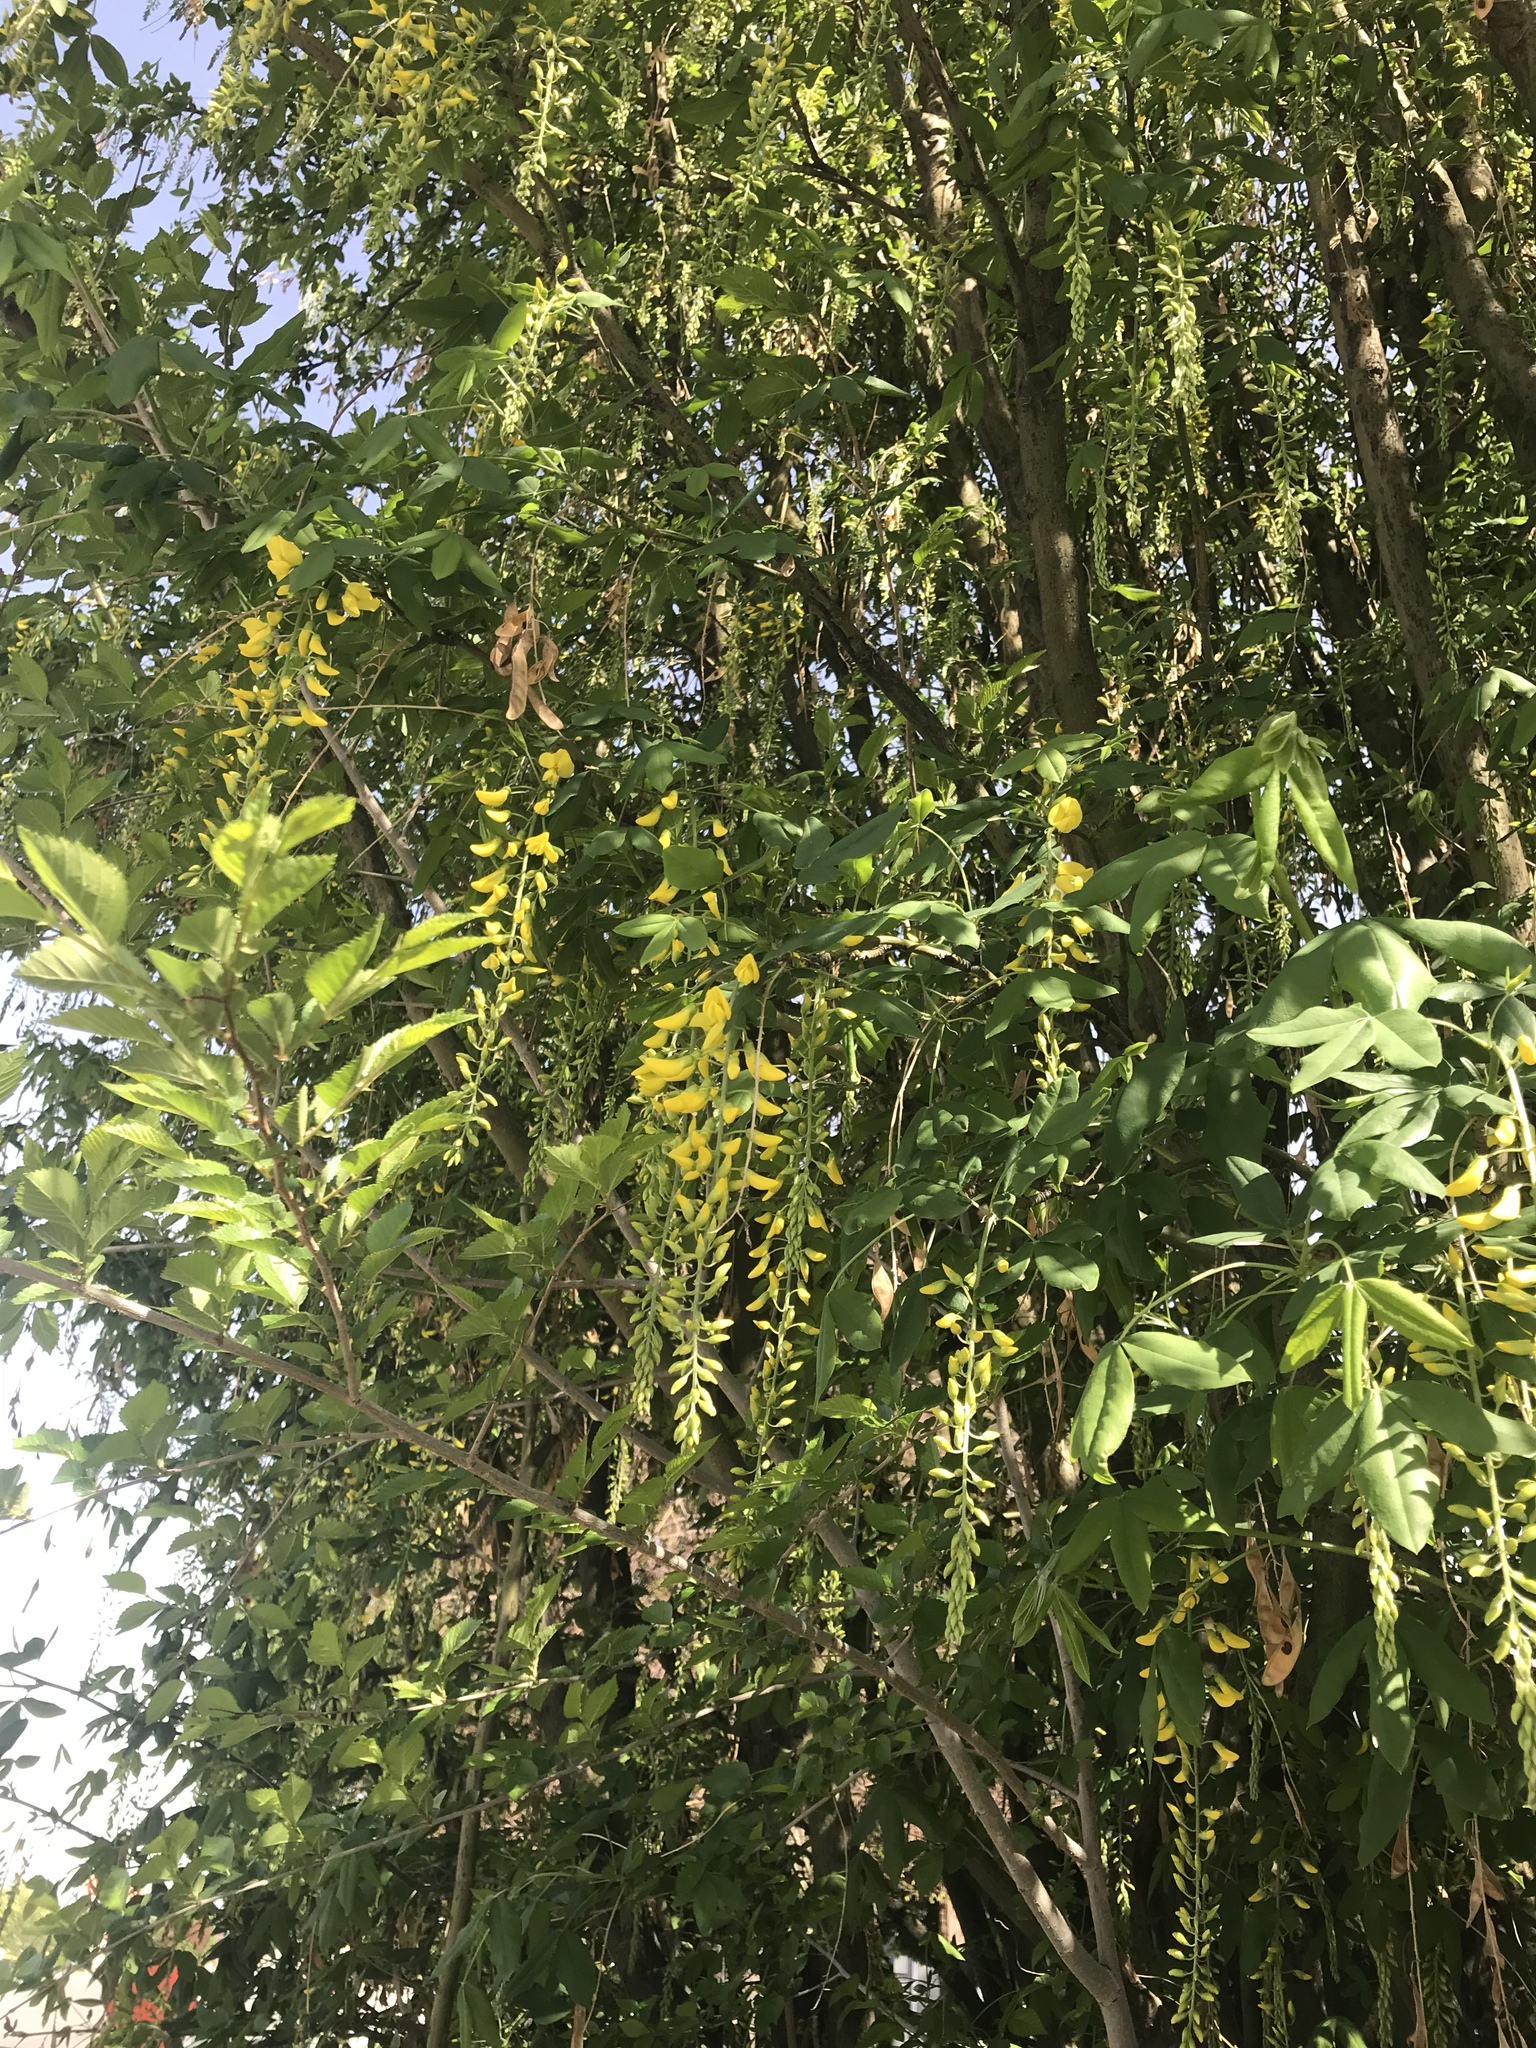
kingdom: Plantae
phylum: Tracheophyta
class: Magnoliopsida
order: Fabales
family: Fabaceae
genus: Laburnum
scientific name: Laburnum anagyroides
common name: Laburnum
